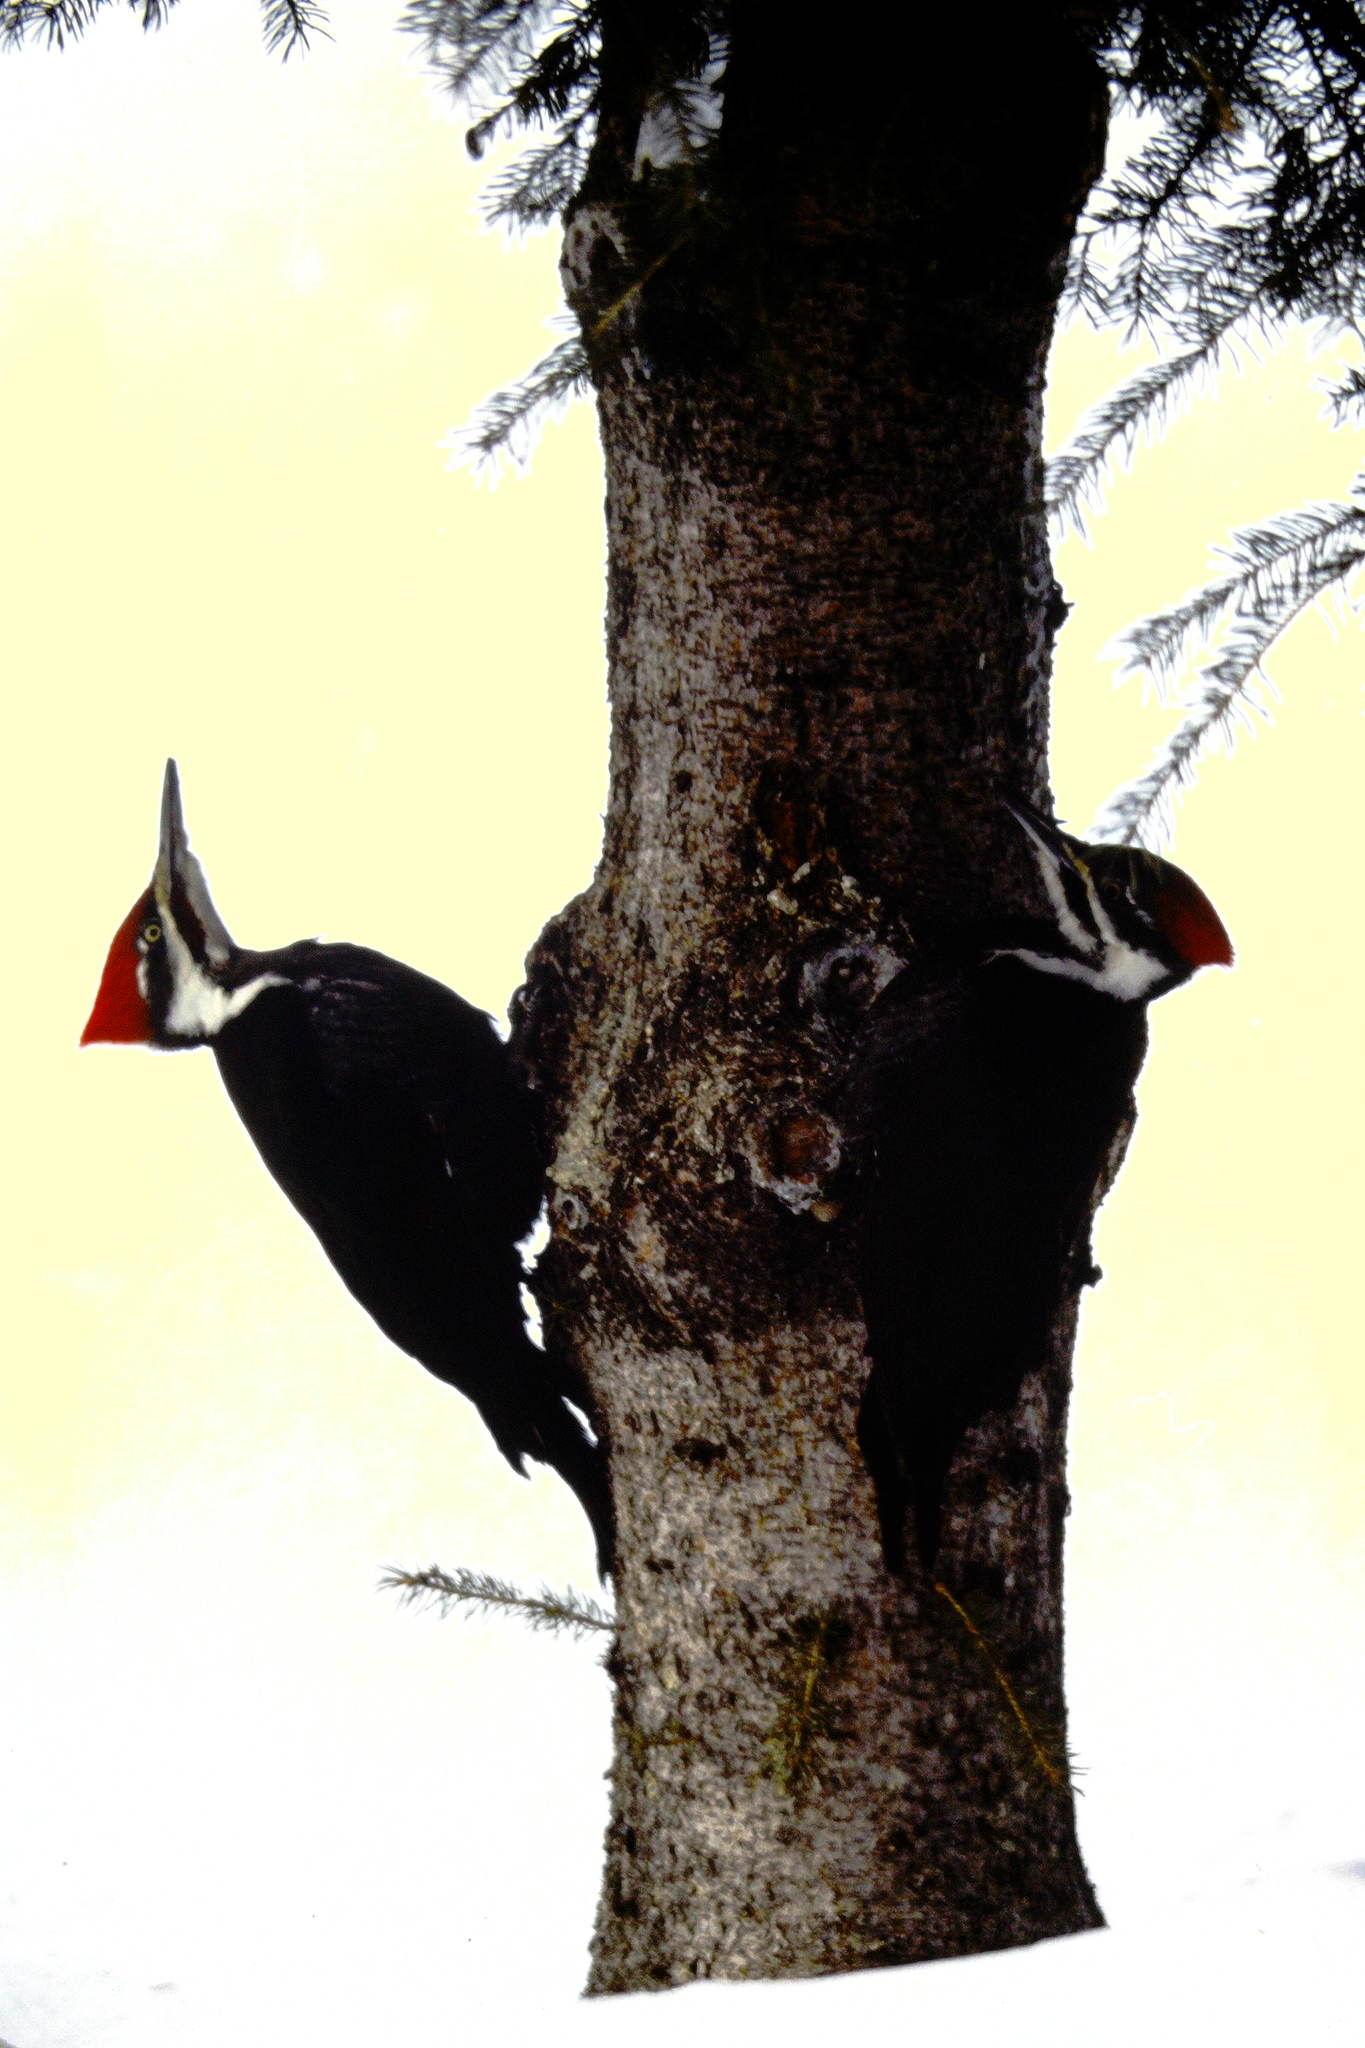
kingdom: Animalia
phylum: Chordata
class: Aves
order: Piciformes
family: Picidae
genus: Dryocopus
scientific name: Dryocopus pileatus
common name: Pileated woodpecker
